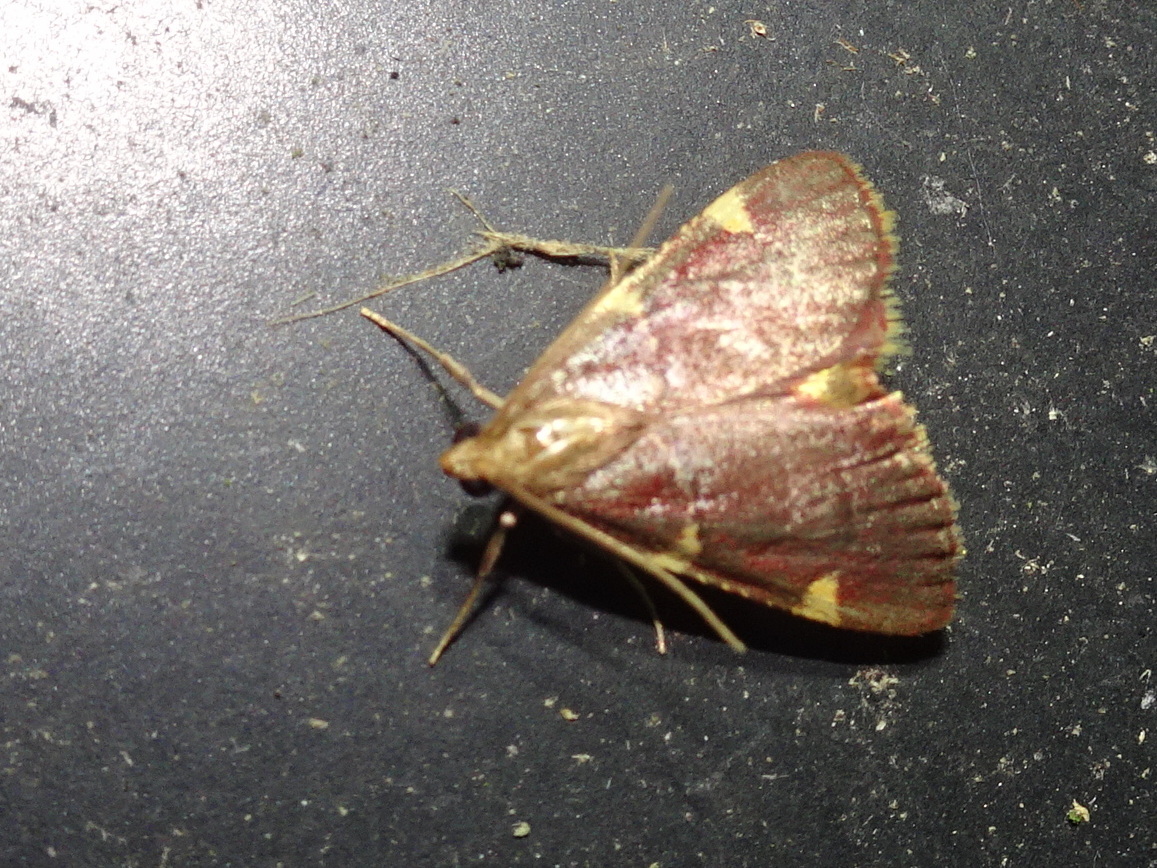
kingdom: Animalia
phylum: Arthropoda
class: Insecta
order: Lepidoptera
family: Pyralidae
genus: Hypsopygia
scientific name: Hypsopygia olinalis
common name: Yellow-fringed dolichomia moth
